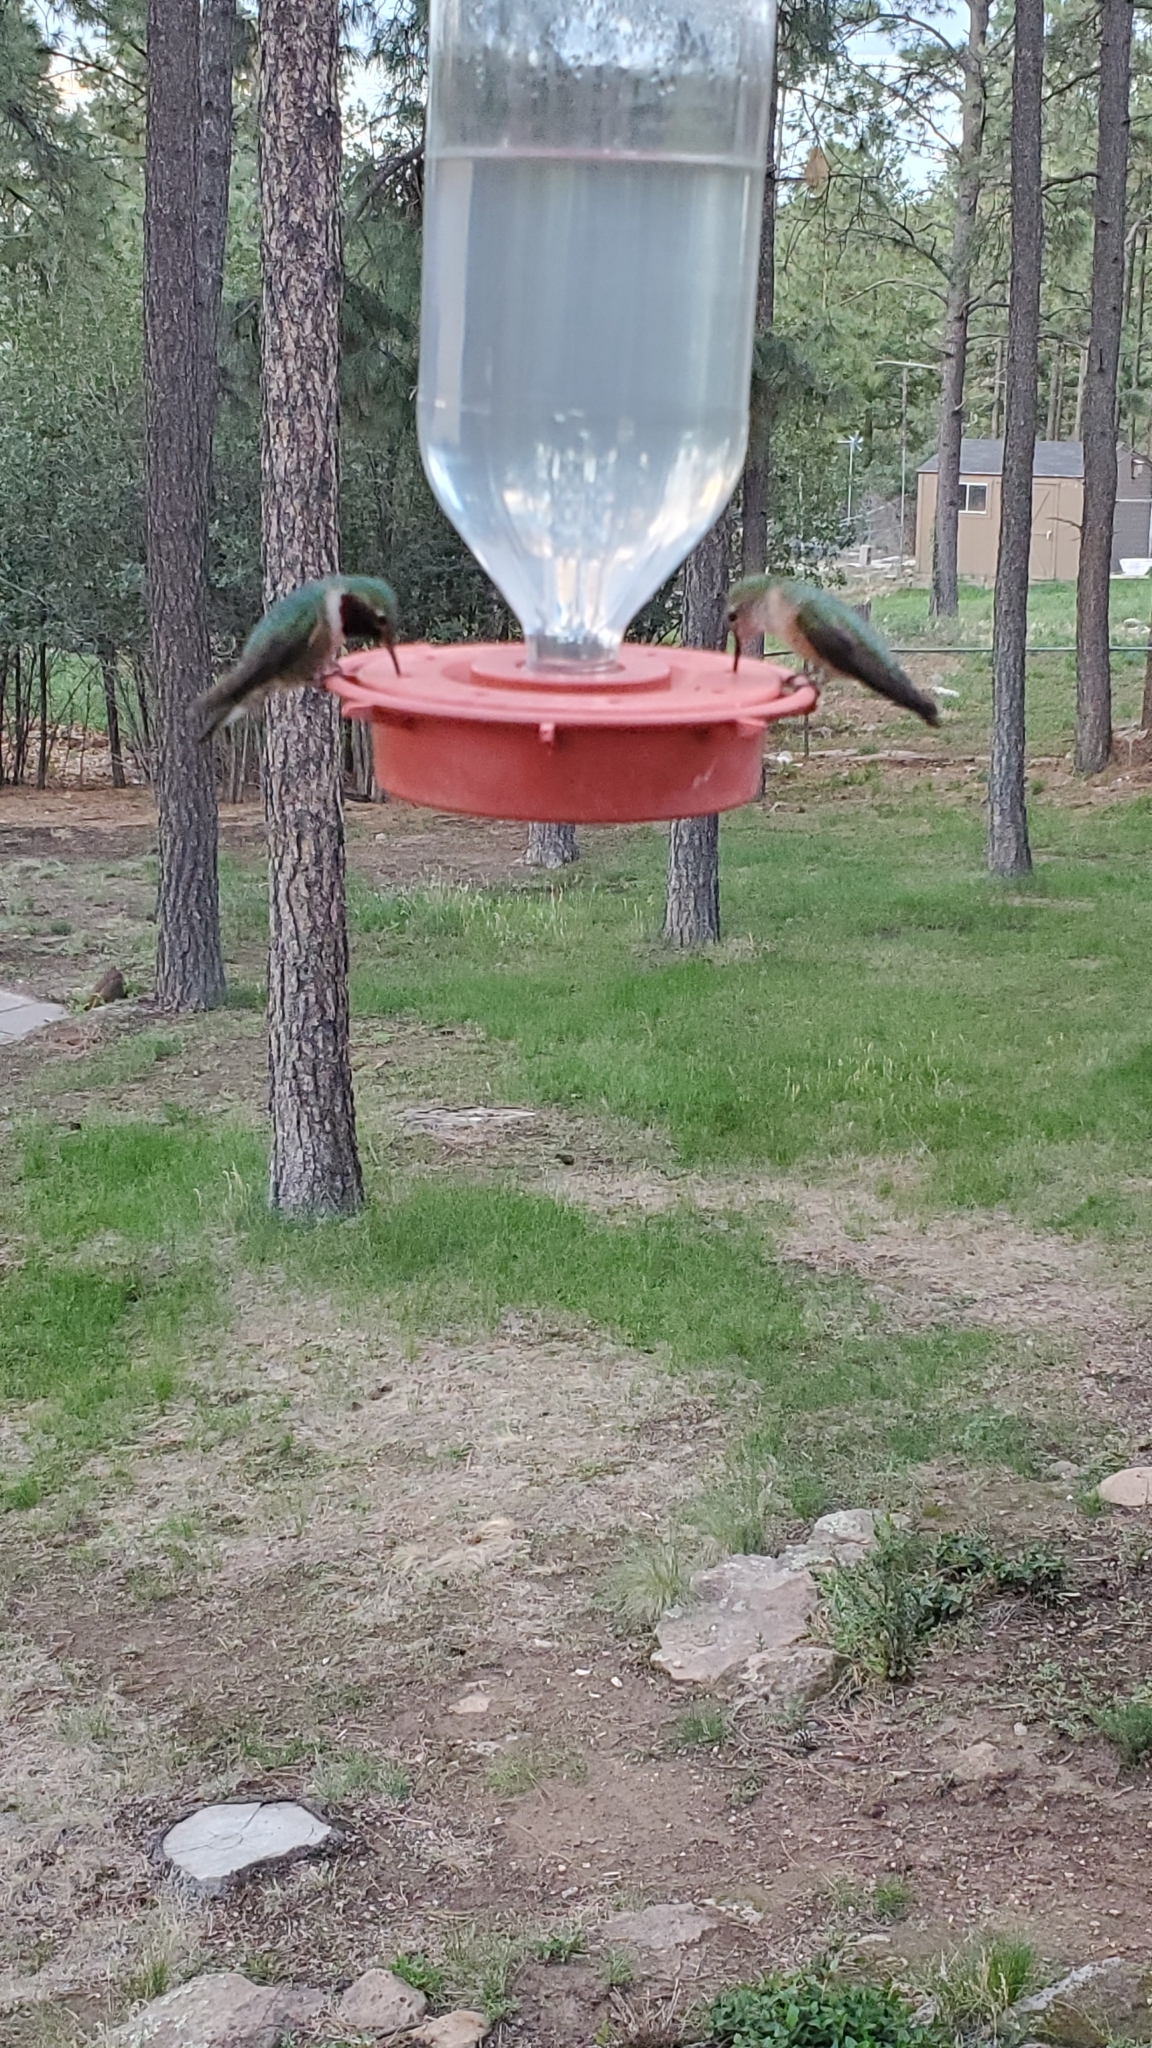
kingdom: Animalia
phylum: Chordata
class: Aves
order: Apodiformes
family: Trochilidae
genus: Selasphorus
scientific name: Selasphorus platycercus
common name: Broad-tailed hummingbird
